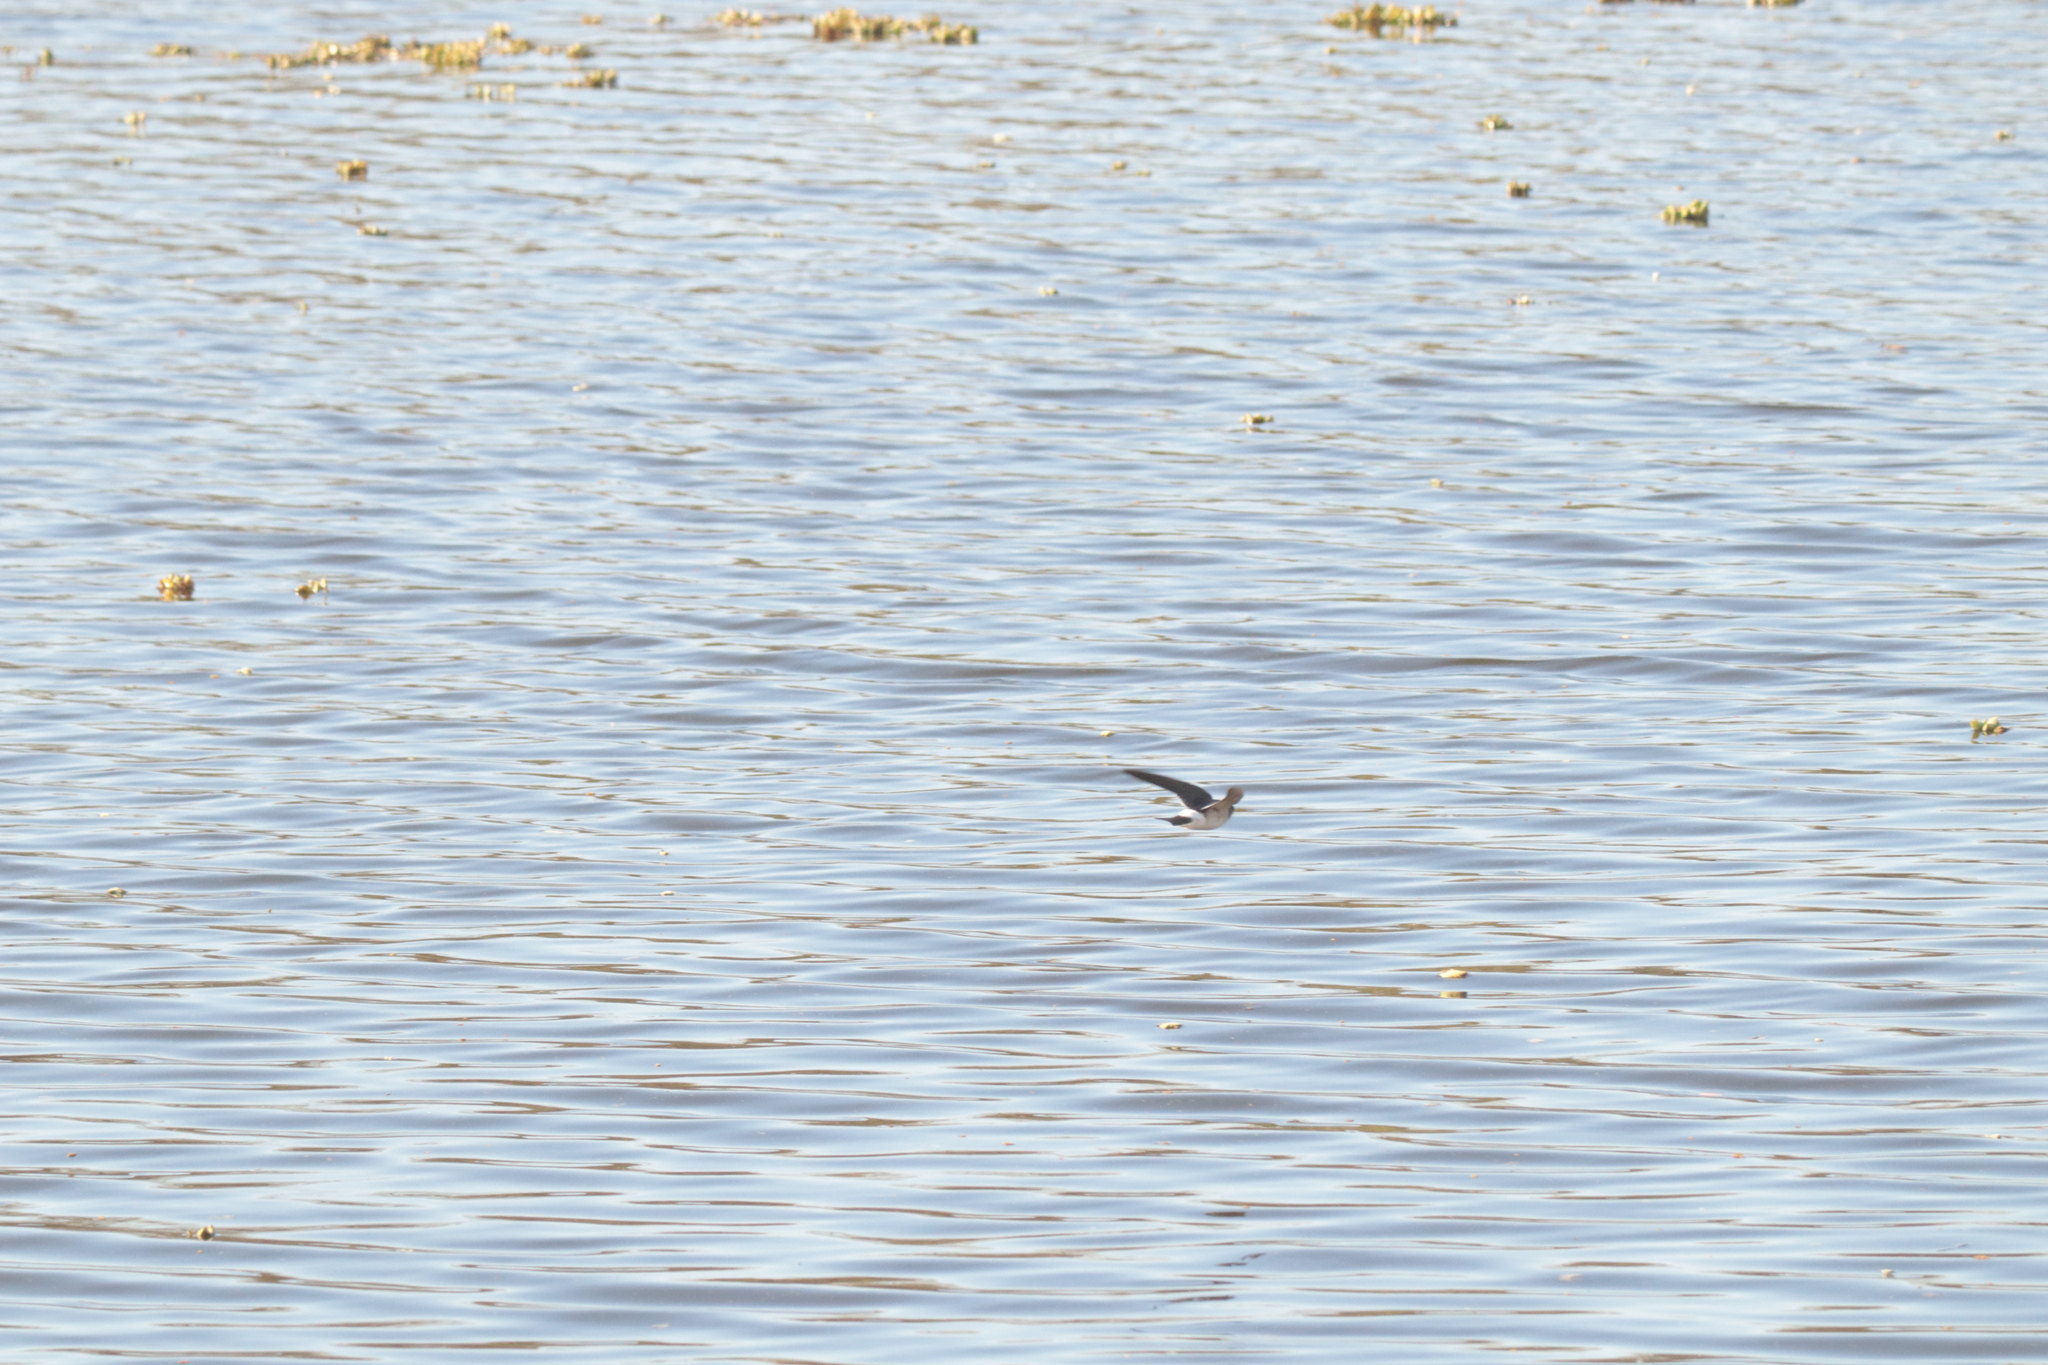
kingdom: Animalia
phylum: Chordata
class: Aves
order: Passeriformes
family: Hirundinidae
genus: Tachycineta
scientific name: Tachycineta leucorrhoa
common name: White-rumped swallow
